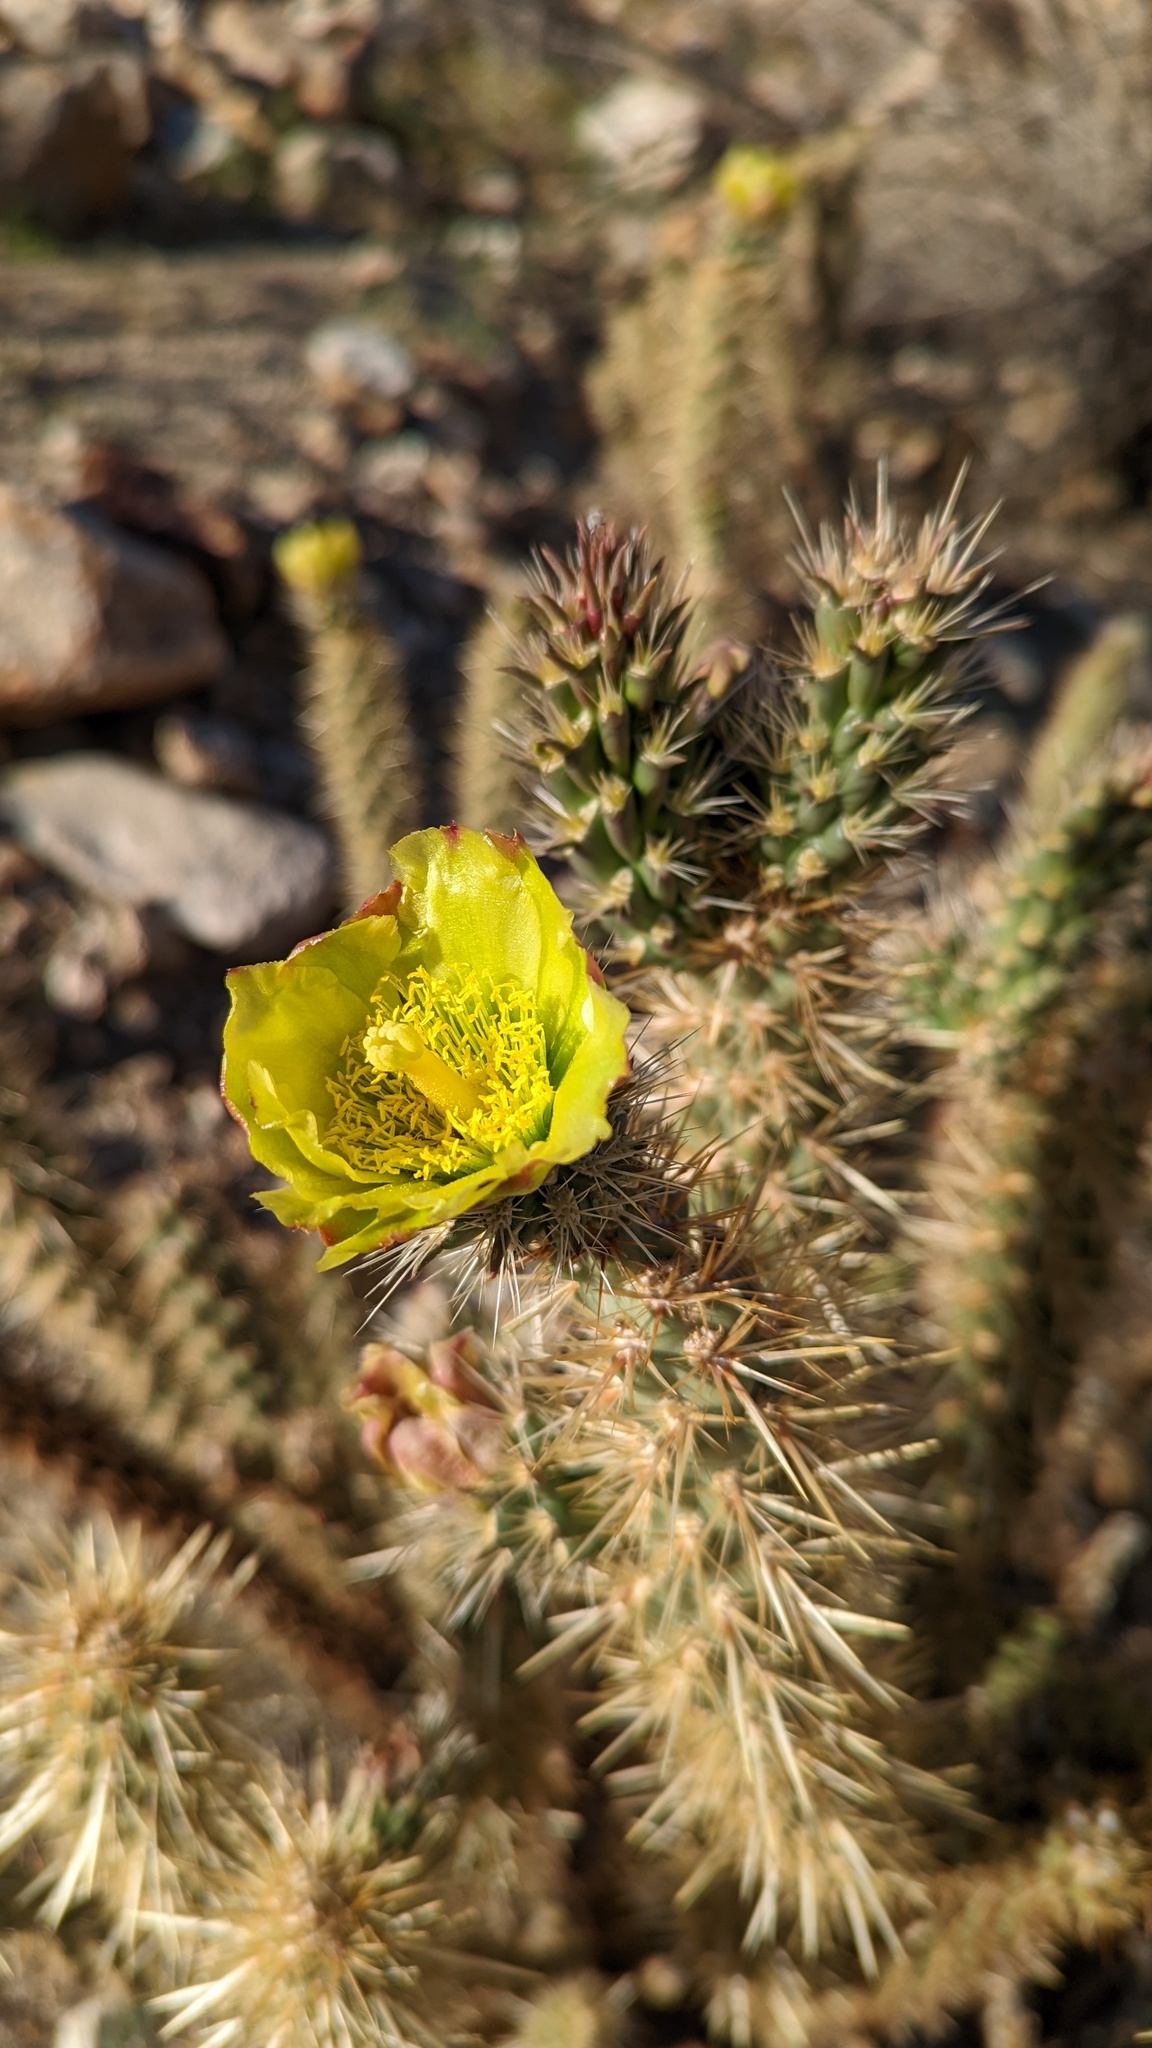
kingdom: Plantae
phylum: Tracheophyta
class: Magnoliopsida
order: Caryophyllales
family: Cactaceae
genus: Cylindropuntia
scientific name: Cylindropuntia ganderi
